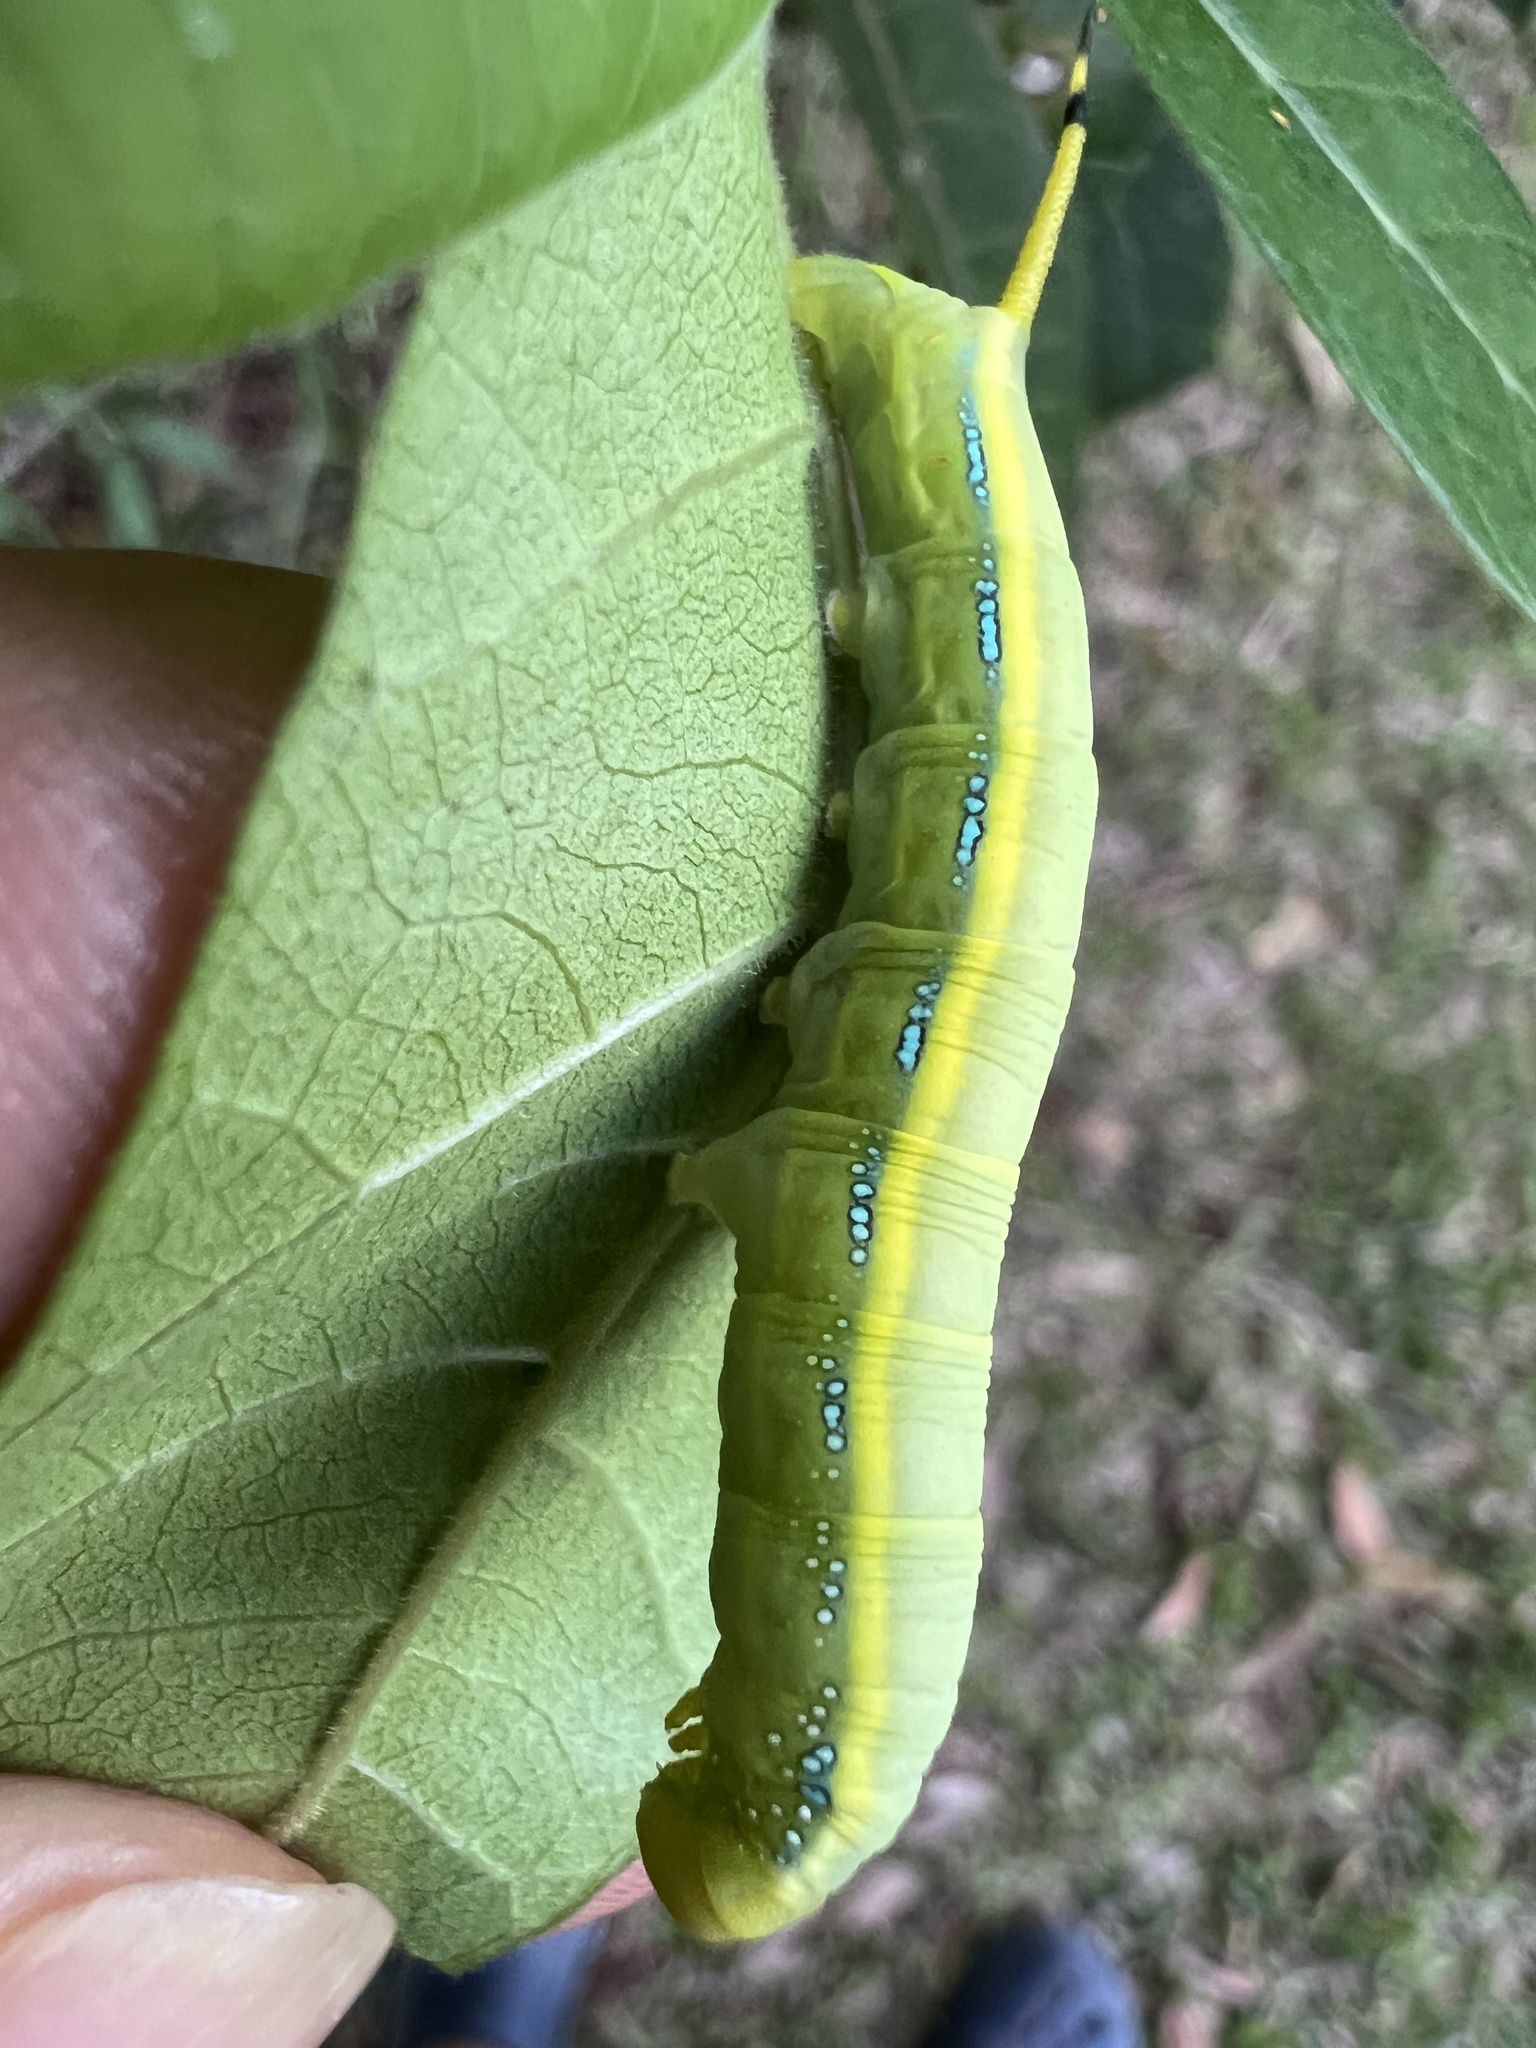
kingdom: Animalia
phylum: Arthropoda
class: Insecta
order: Lepidoptera
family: Sphingidae
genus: Daphnis
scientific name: Daphnis placida
